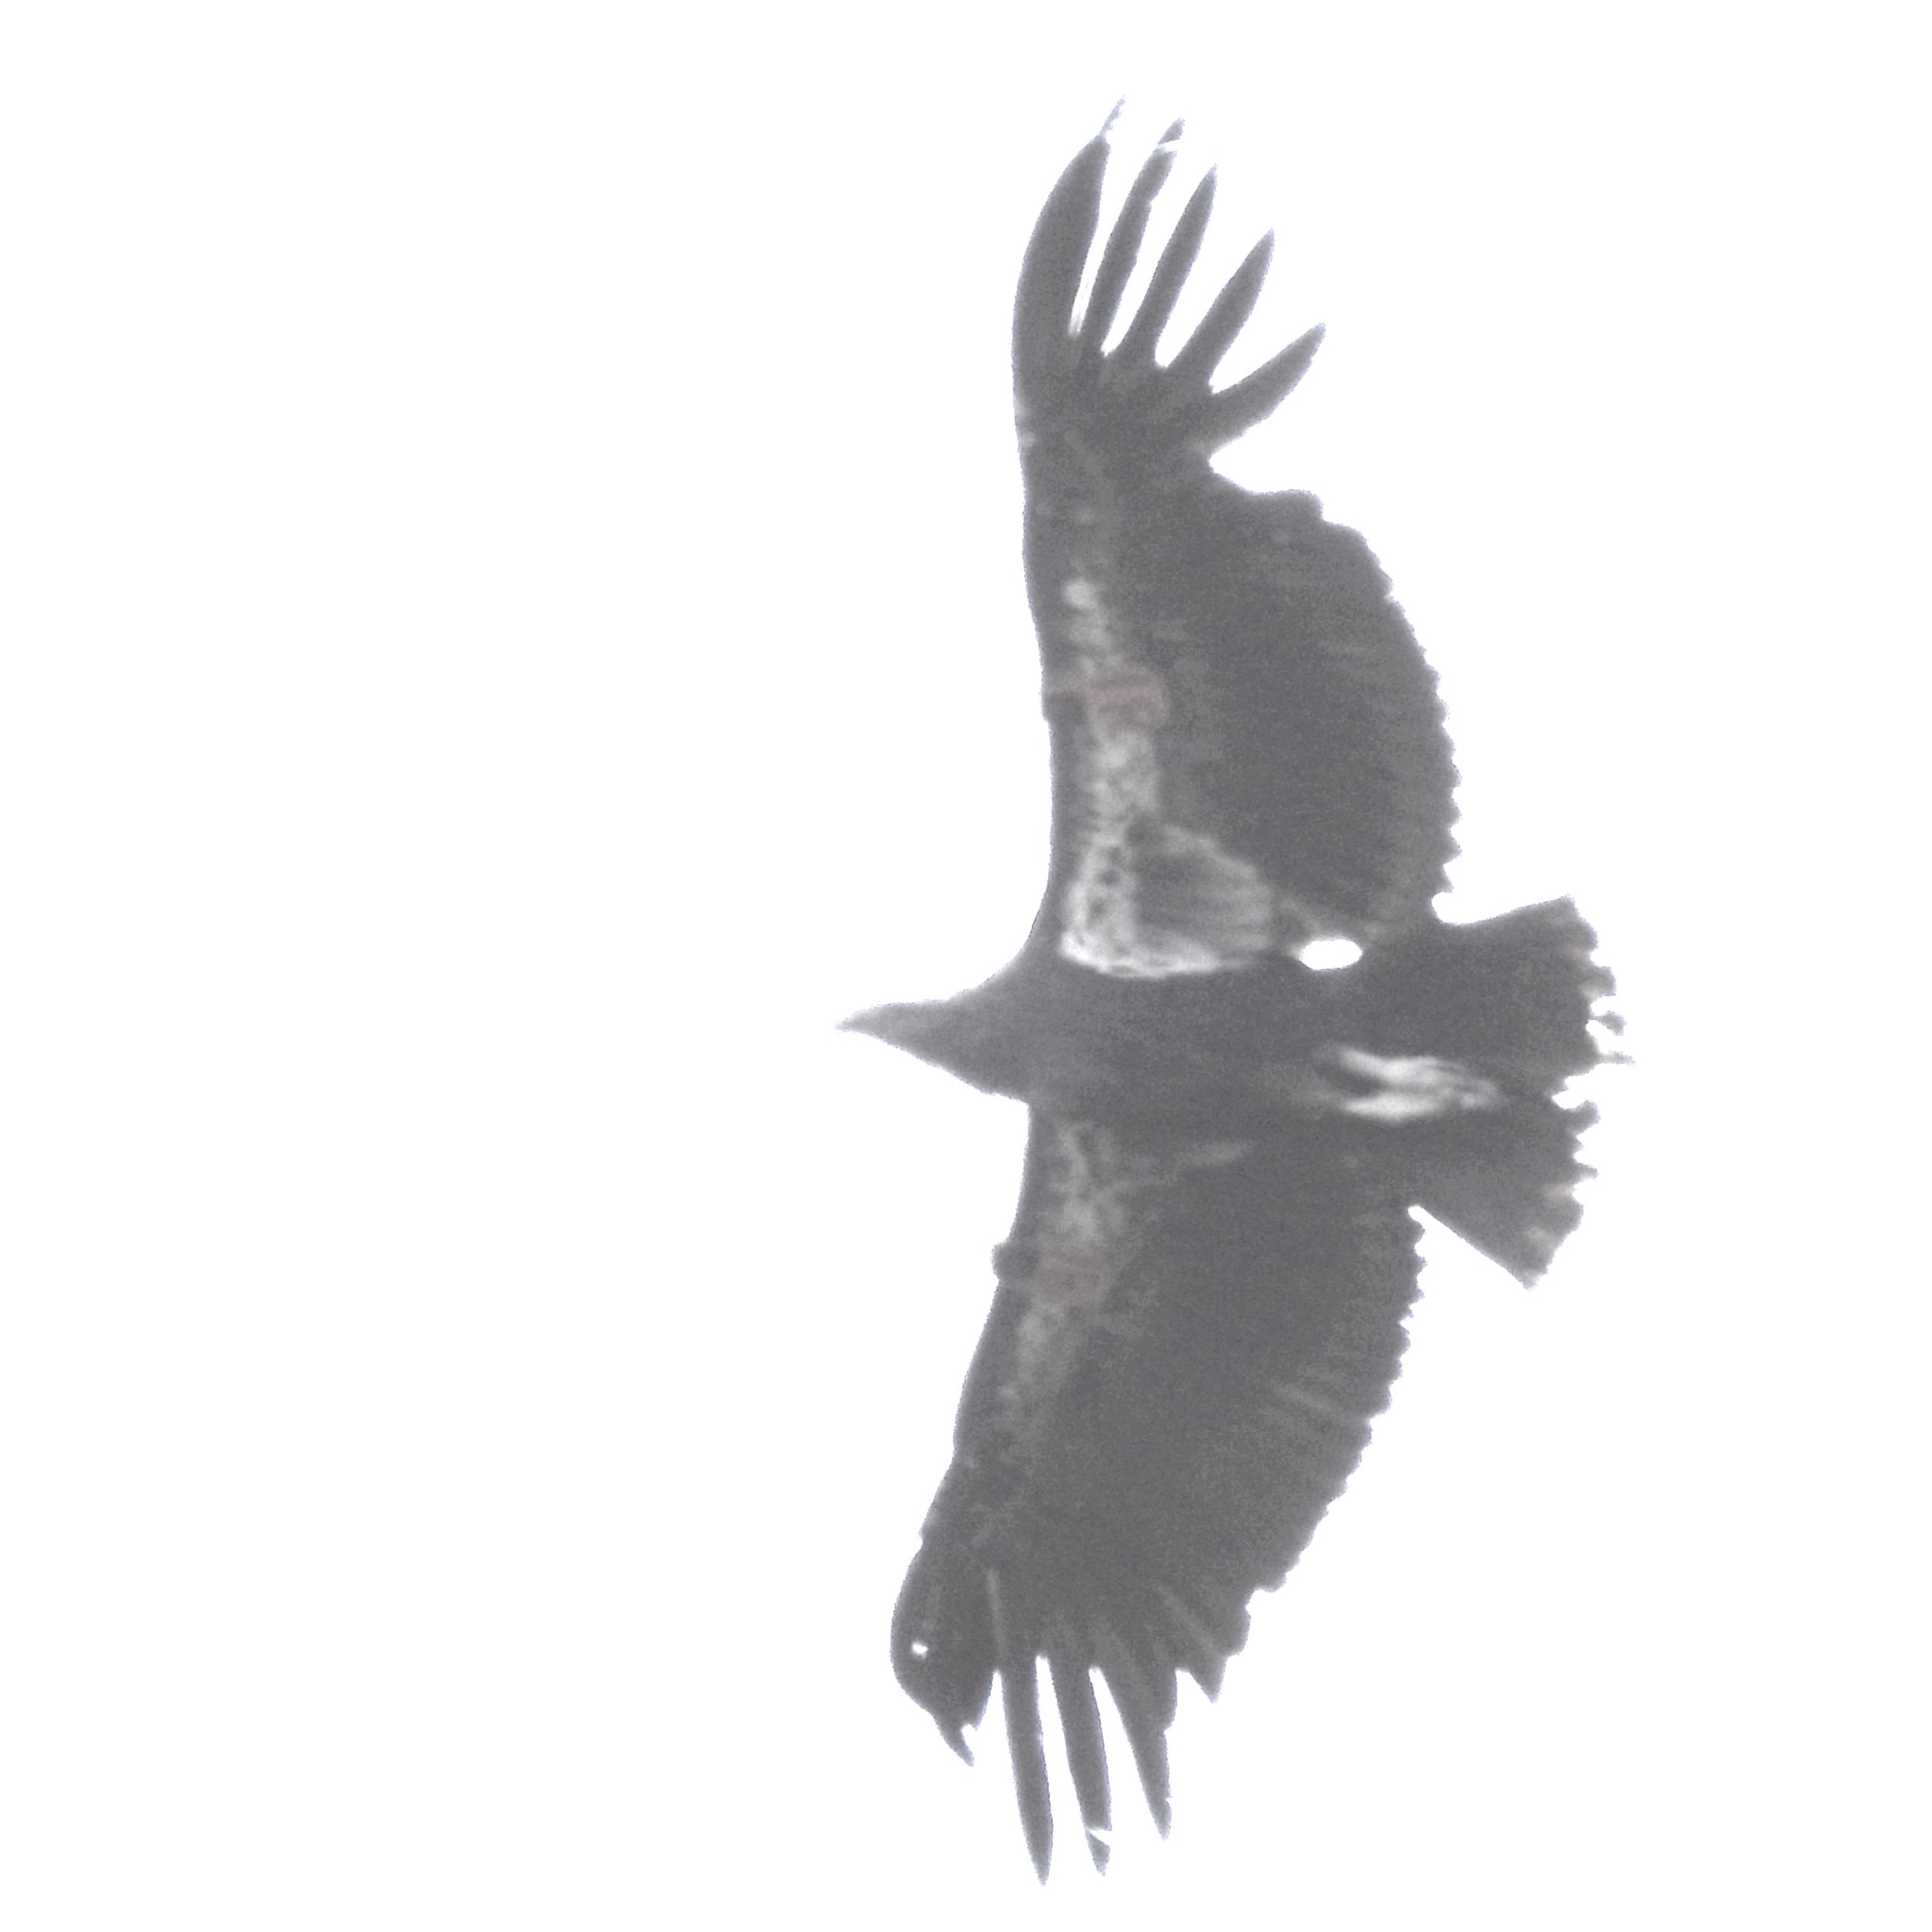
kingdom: Animalia
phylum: Chordata
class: Aves
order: Accipitriformes
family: Cathartidae
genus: Gymnogyps
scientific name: Gymnogyps californianus
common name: California condor
